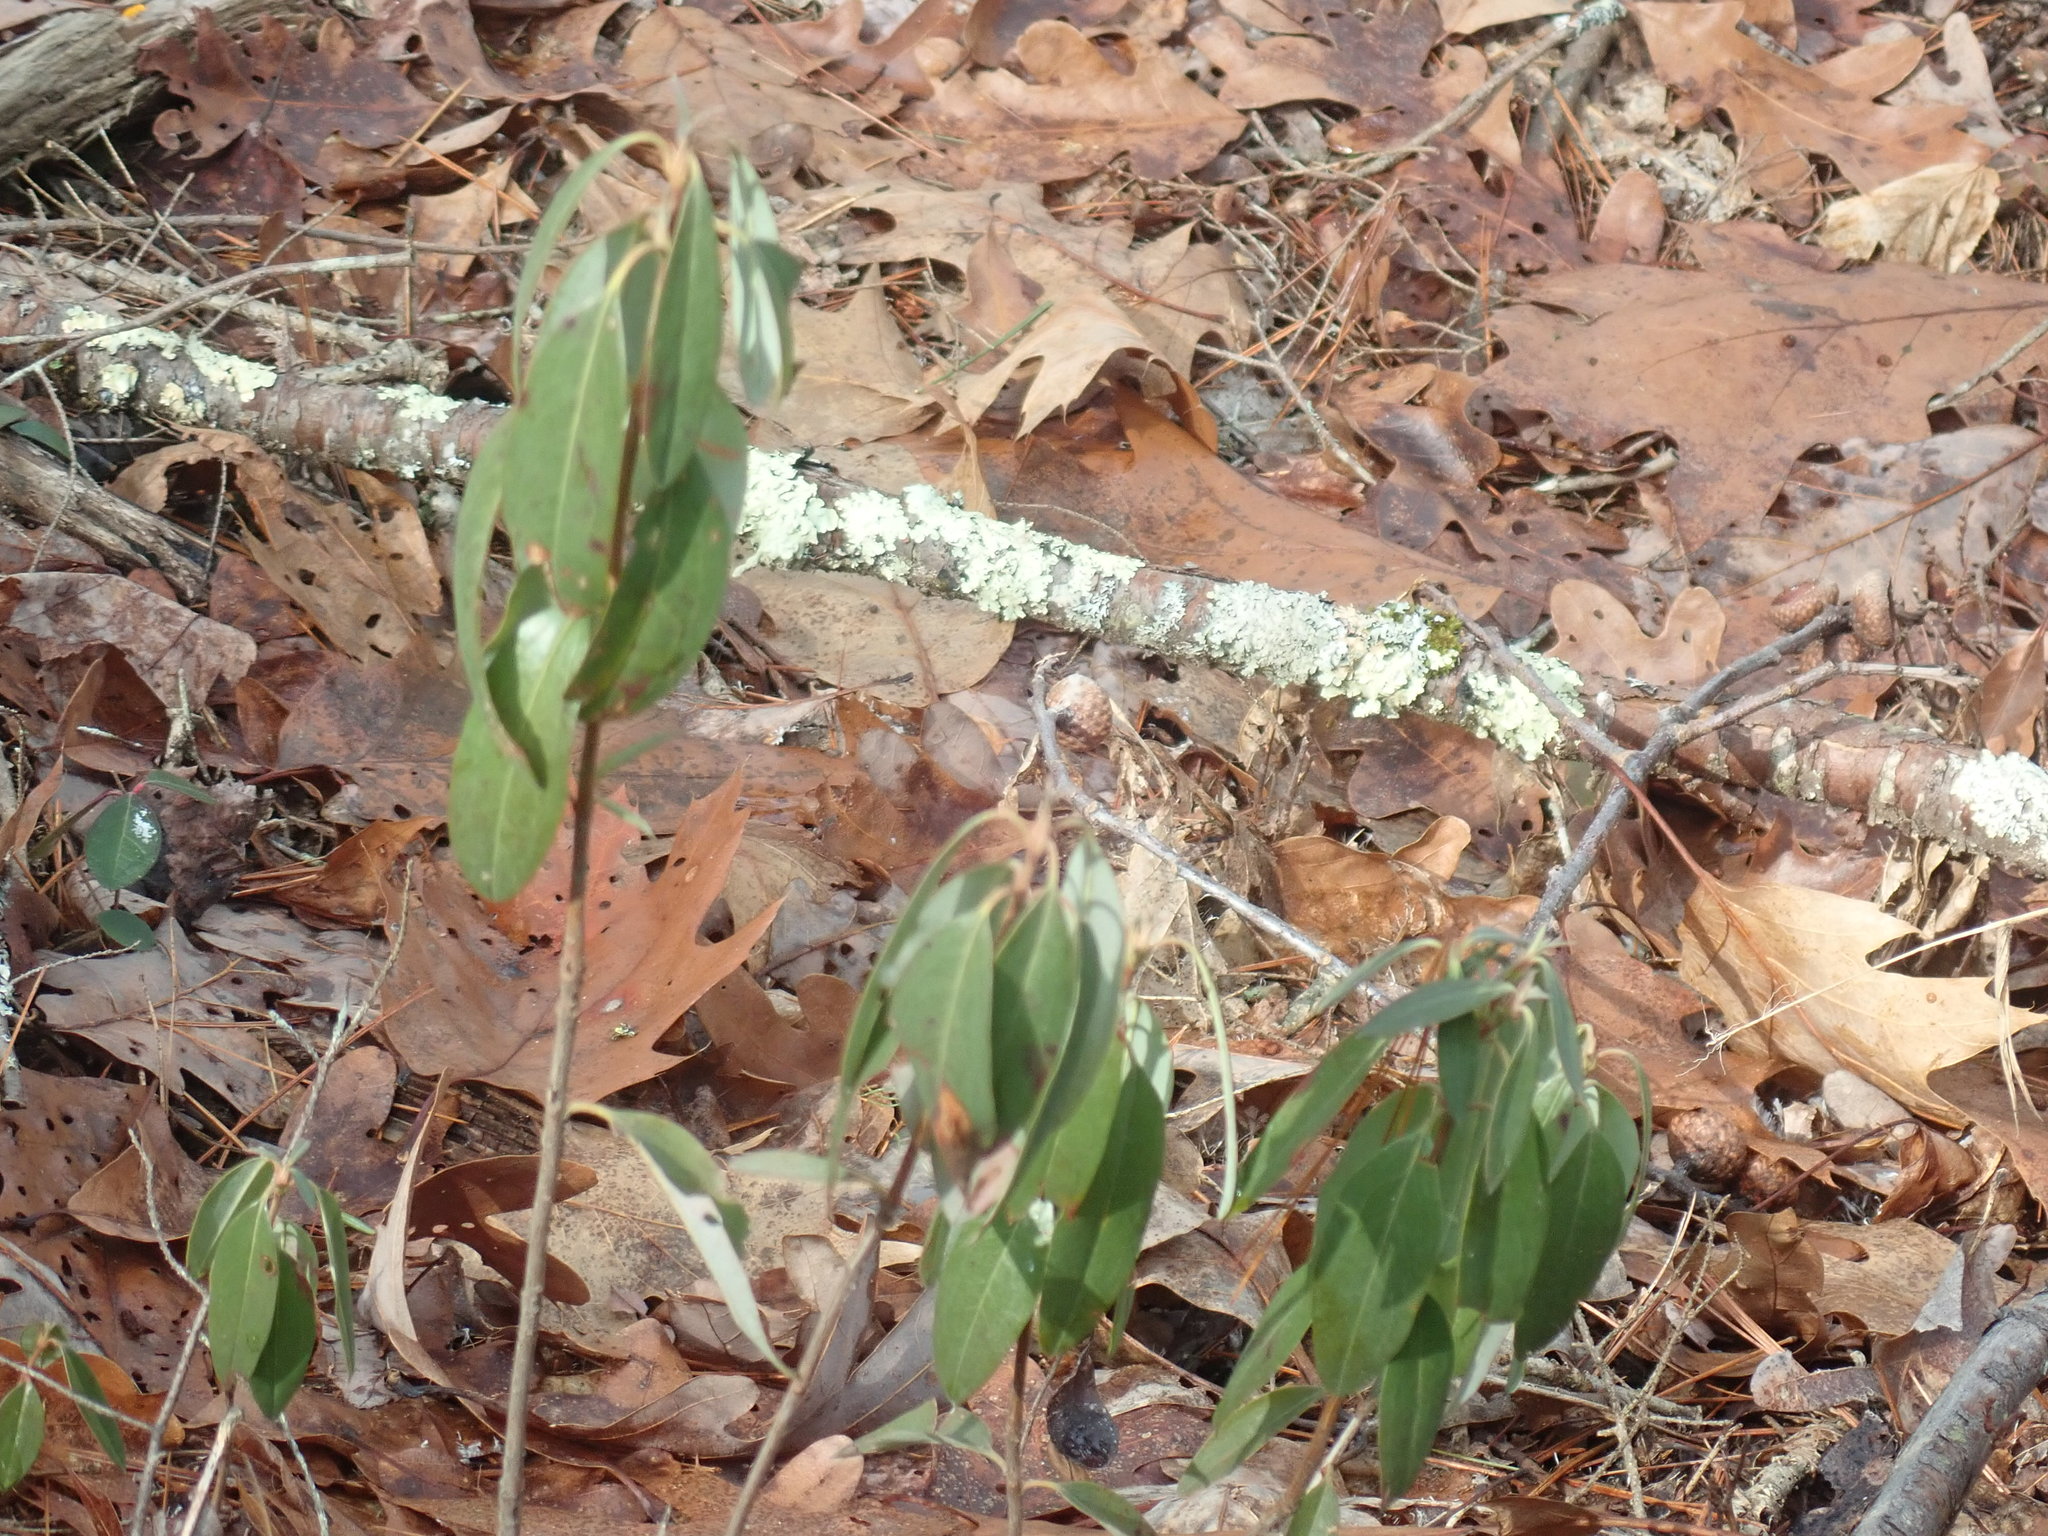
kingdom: Plantae
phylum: Tracheophyta
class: Magnoliopsida
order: Ericales
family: Ericaceae
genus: Kalmia
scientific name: Kalmia angustifolia
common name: Sheep-laurel
